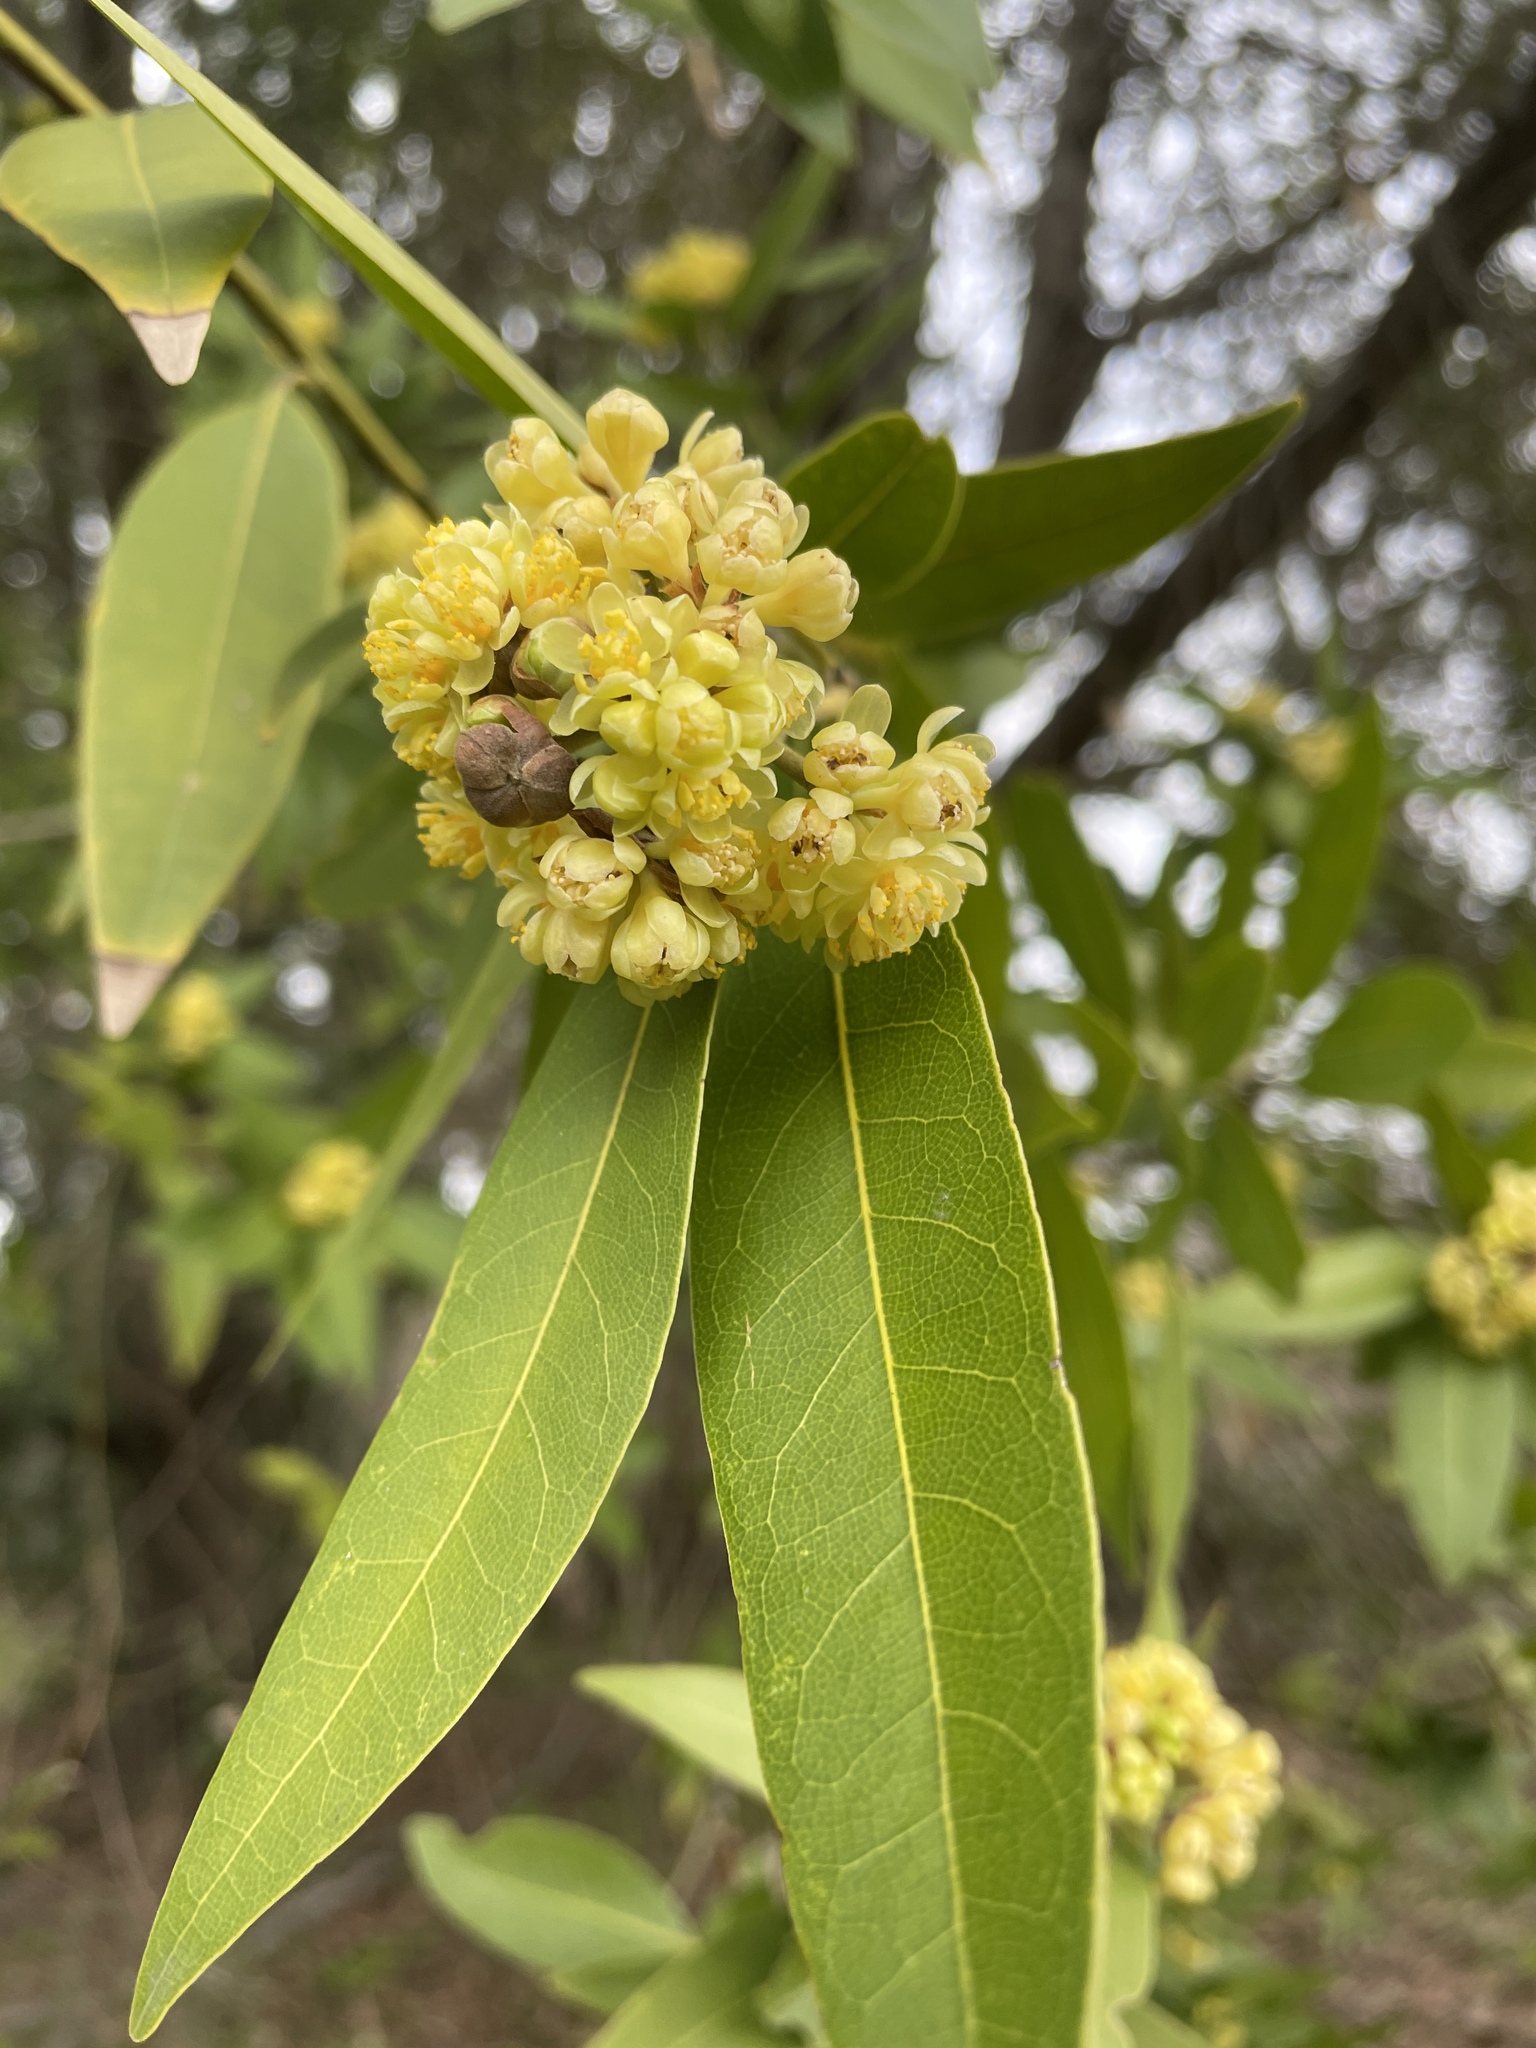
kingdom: Plantae
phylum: Tracheophyta
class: Magnoliopsida
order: Laurales
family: Lauraceae
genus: Umbellularia
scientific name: Umbellularia californica
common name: California bay
